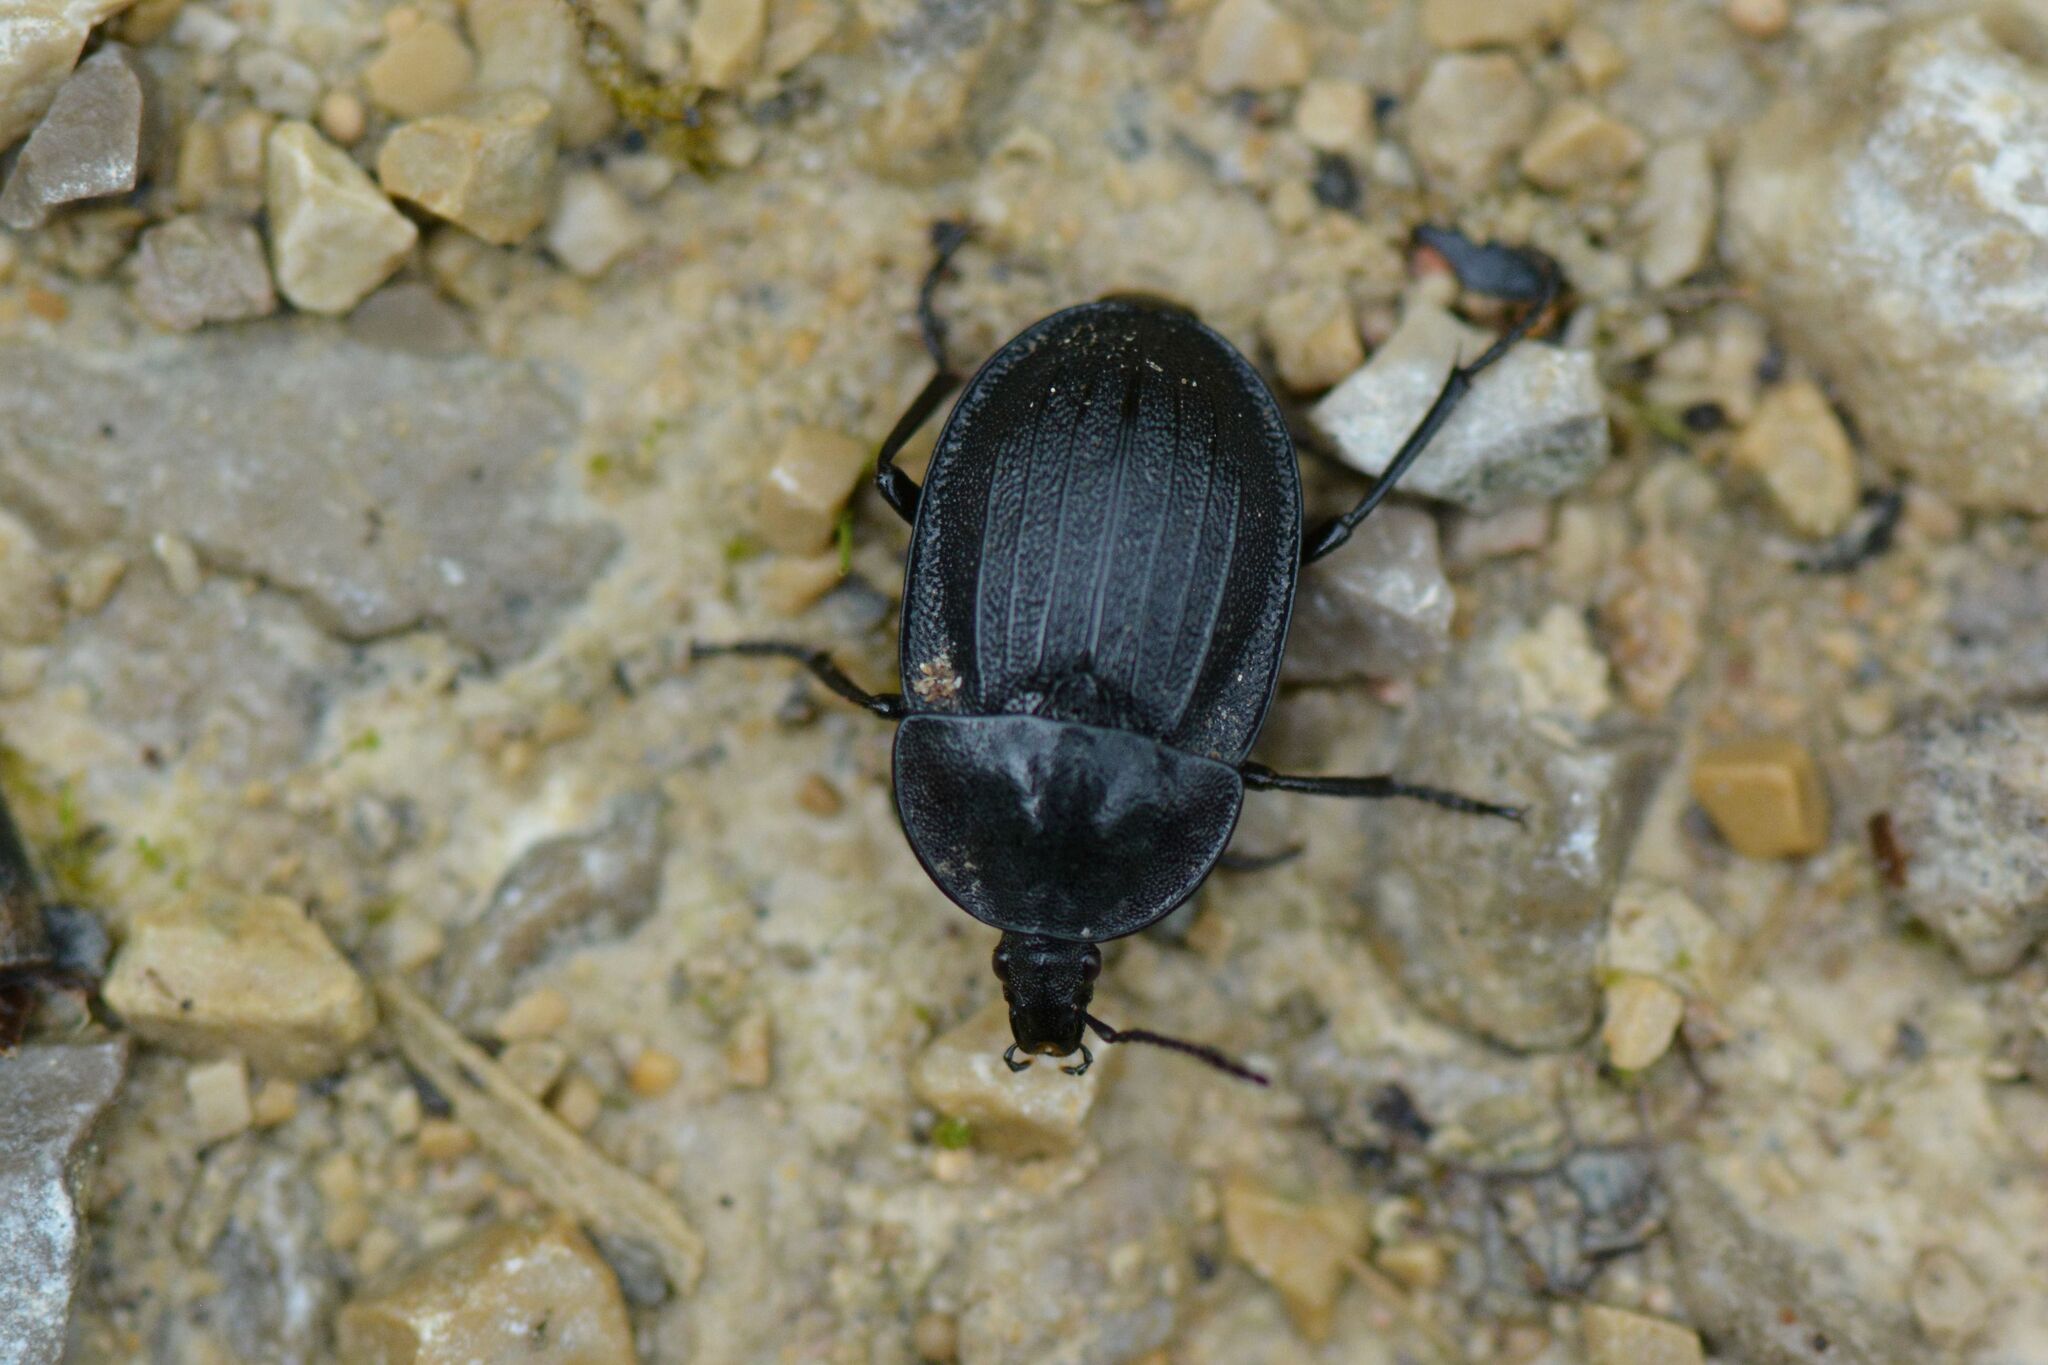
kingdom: Animalia
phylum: Arthropoda
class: Insecta
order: Coleoptera
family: Staphylinidae
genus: Silpha
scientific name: Silpha atrata
